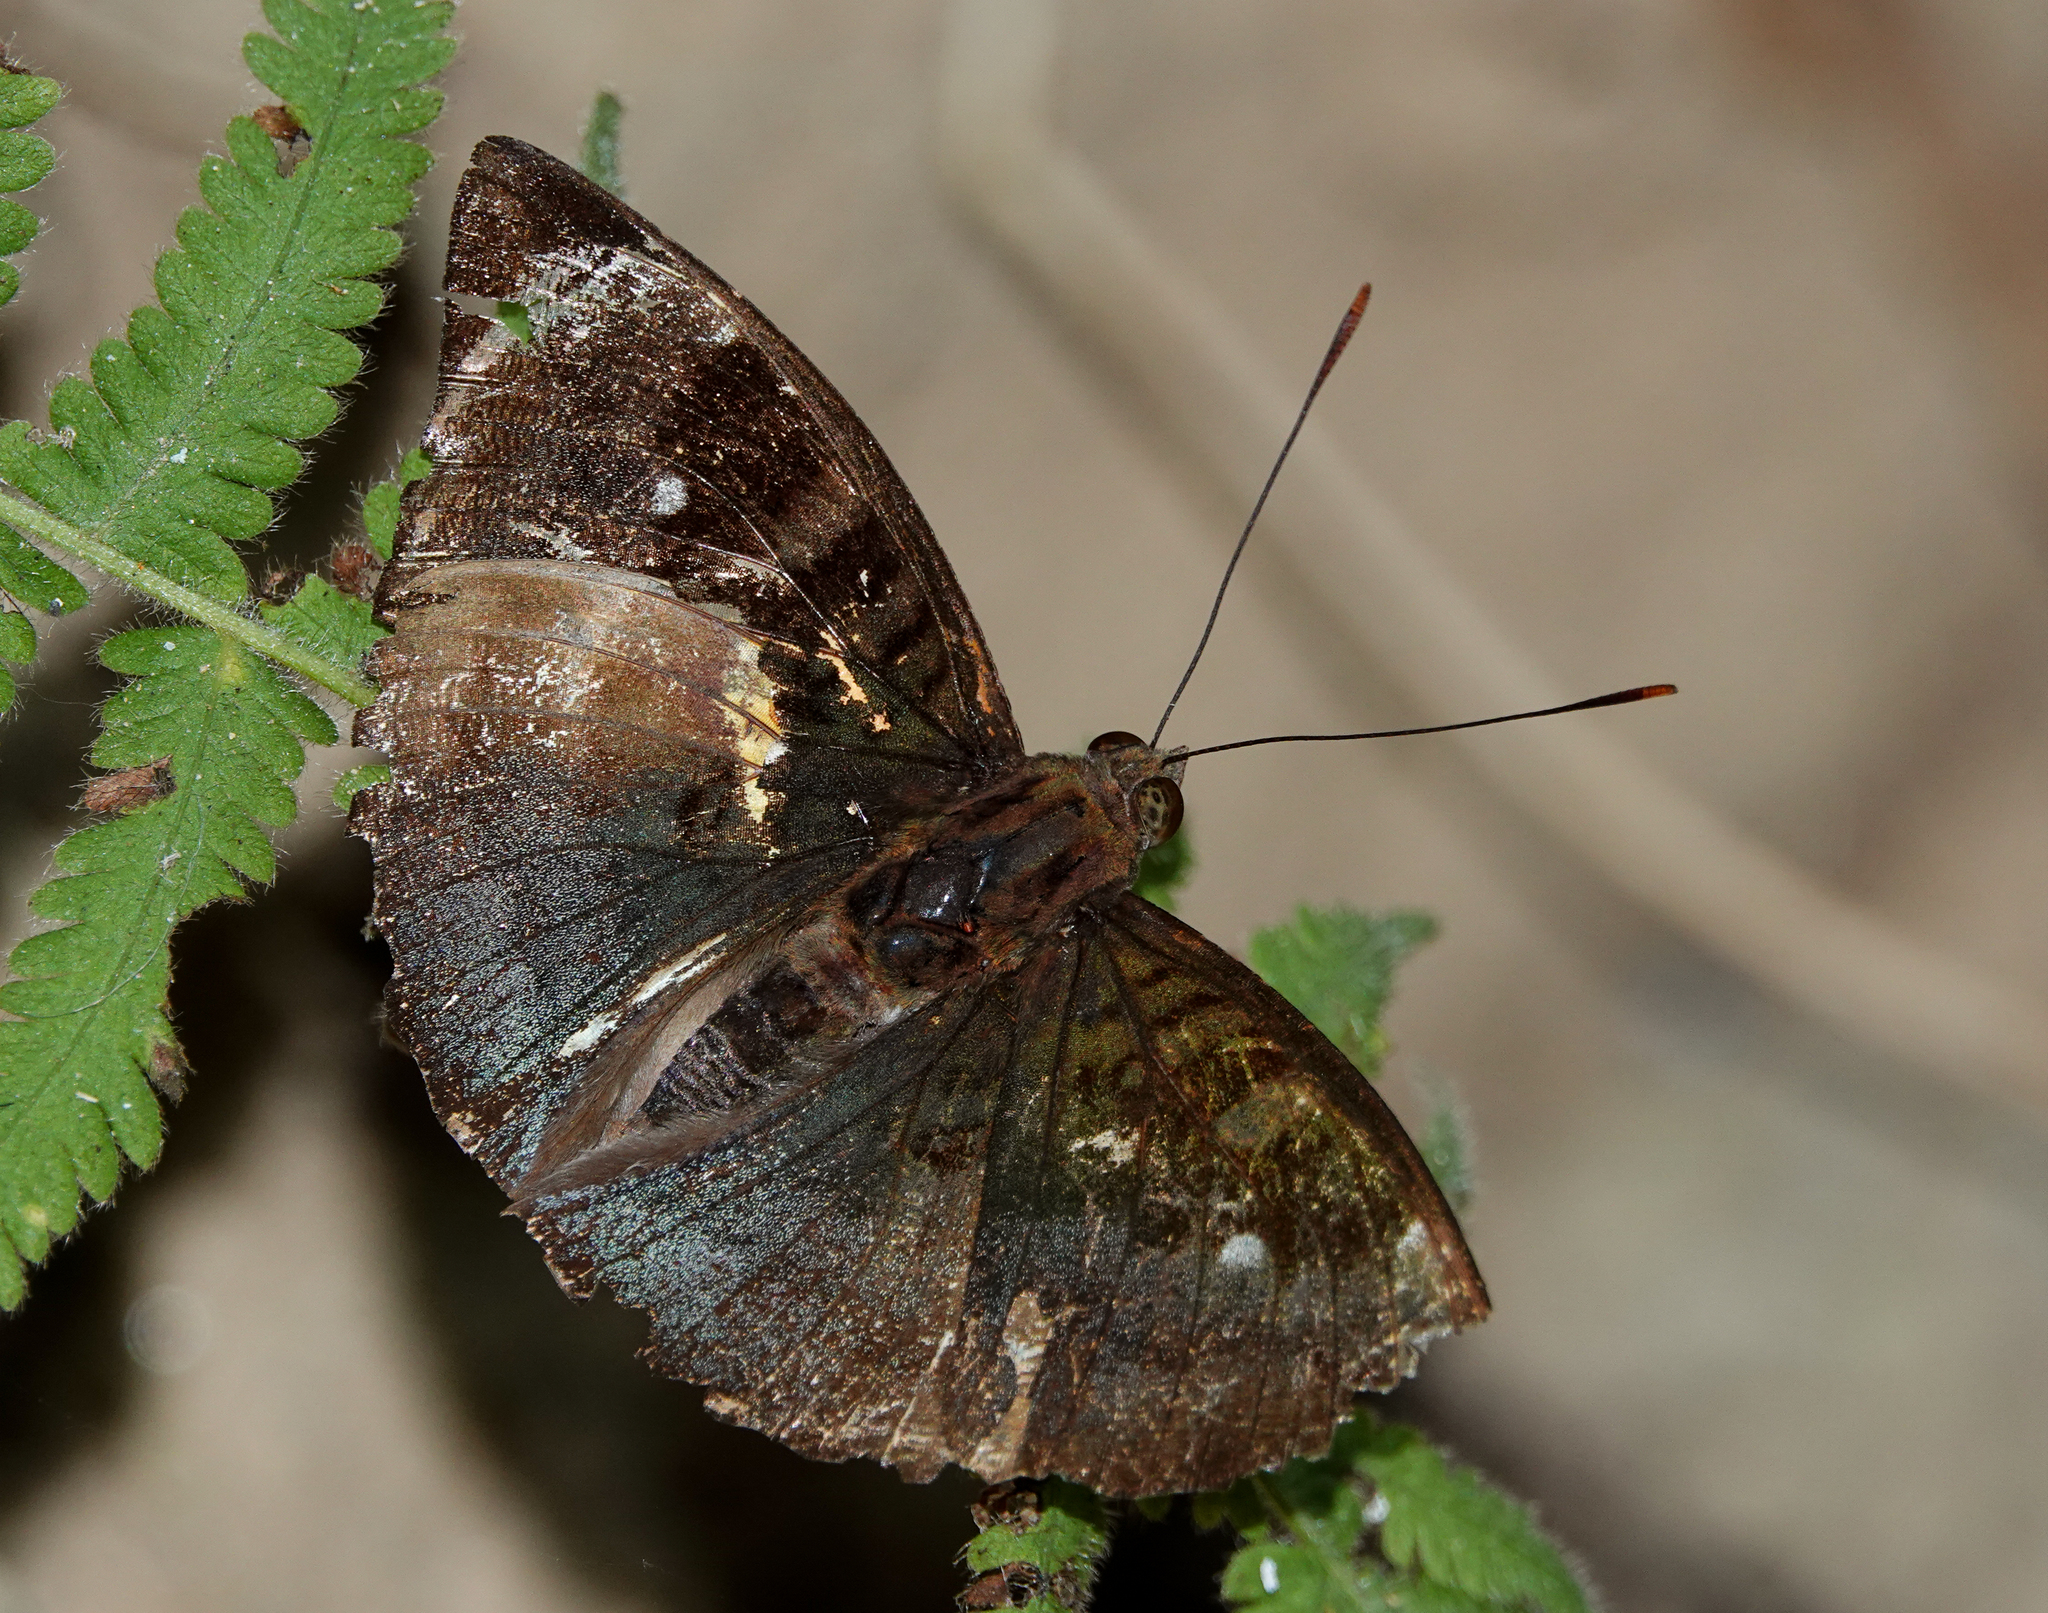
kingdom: Animalia
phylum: Arthropoda
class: Insecta
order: Lepidoptera
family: Nymphalidae
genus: Euthalia
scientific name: Euthalia monina
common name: Powdered baron
